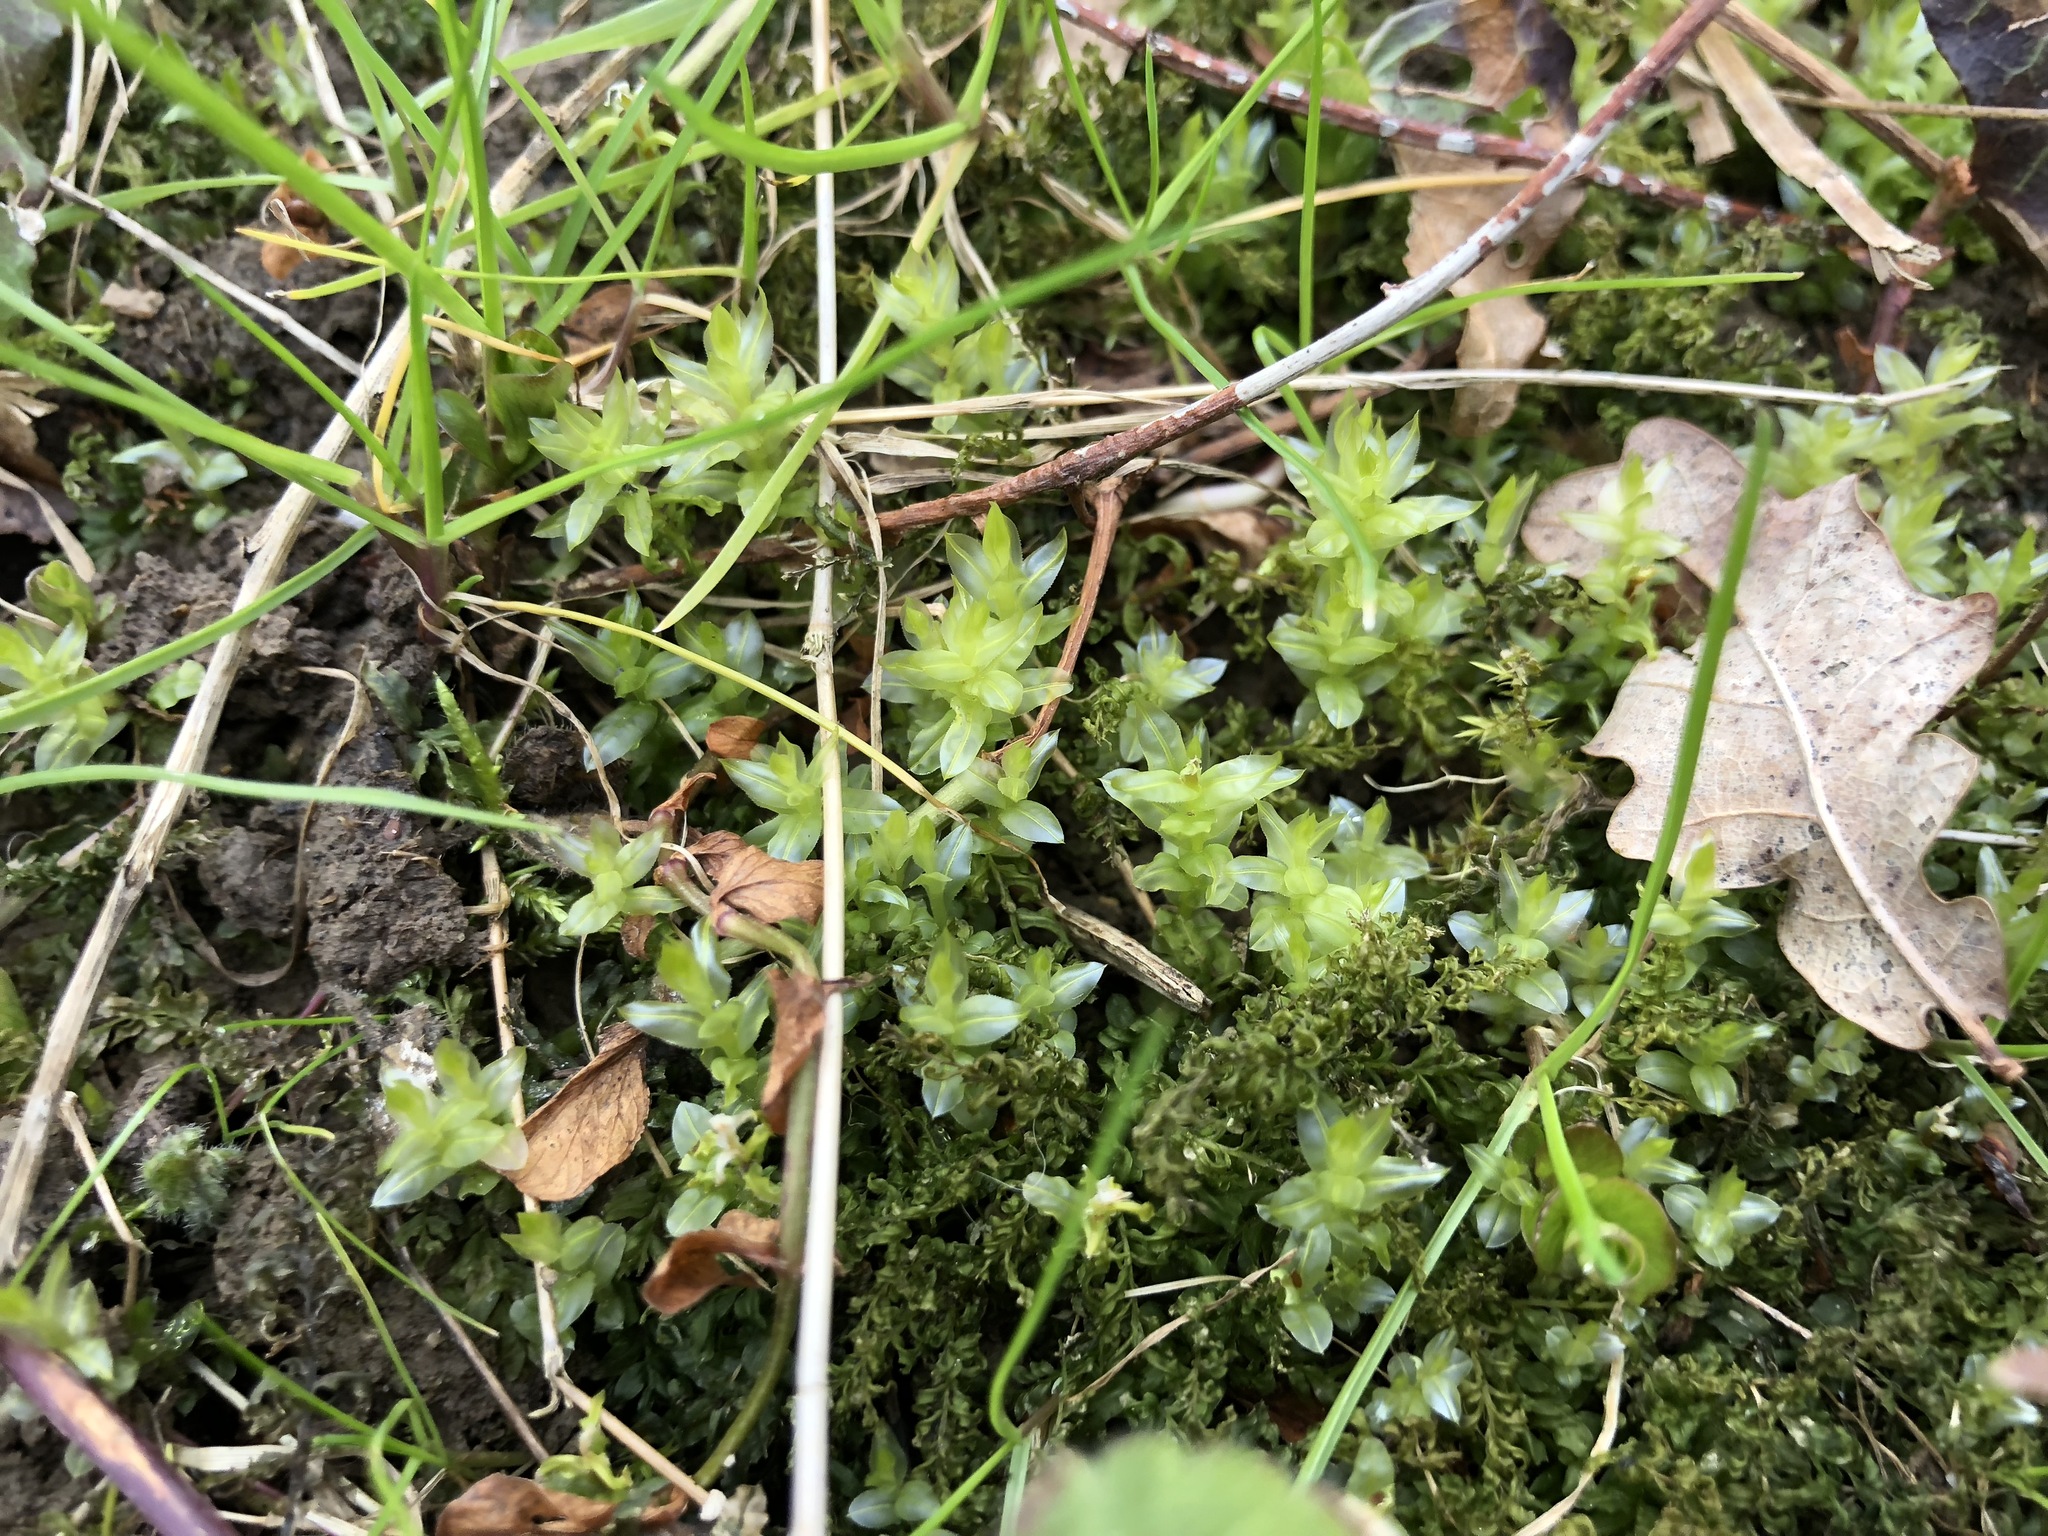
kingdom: Plantae
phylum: Bryophyta
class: Bryopsida
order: Bryales
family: Mniaceae
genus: Mnium
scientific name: Mnium hornum
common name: Swan's-neck leafy moss
